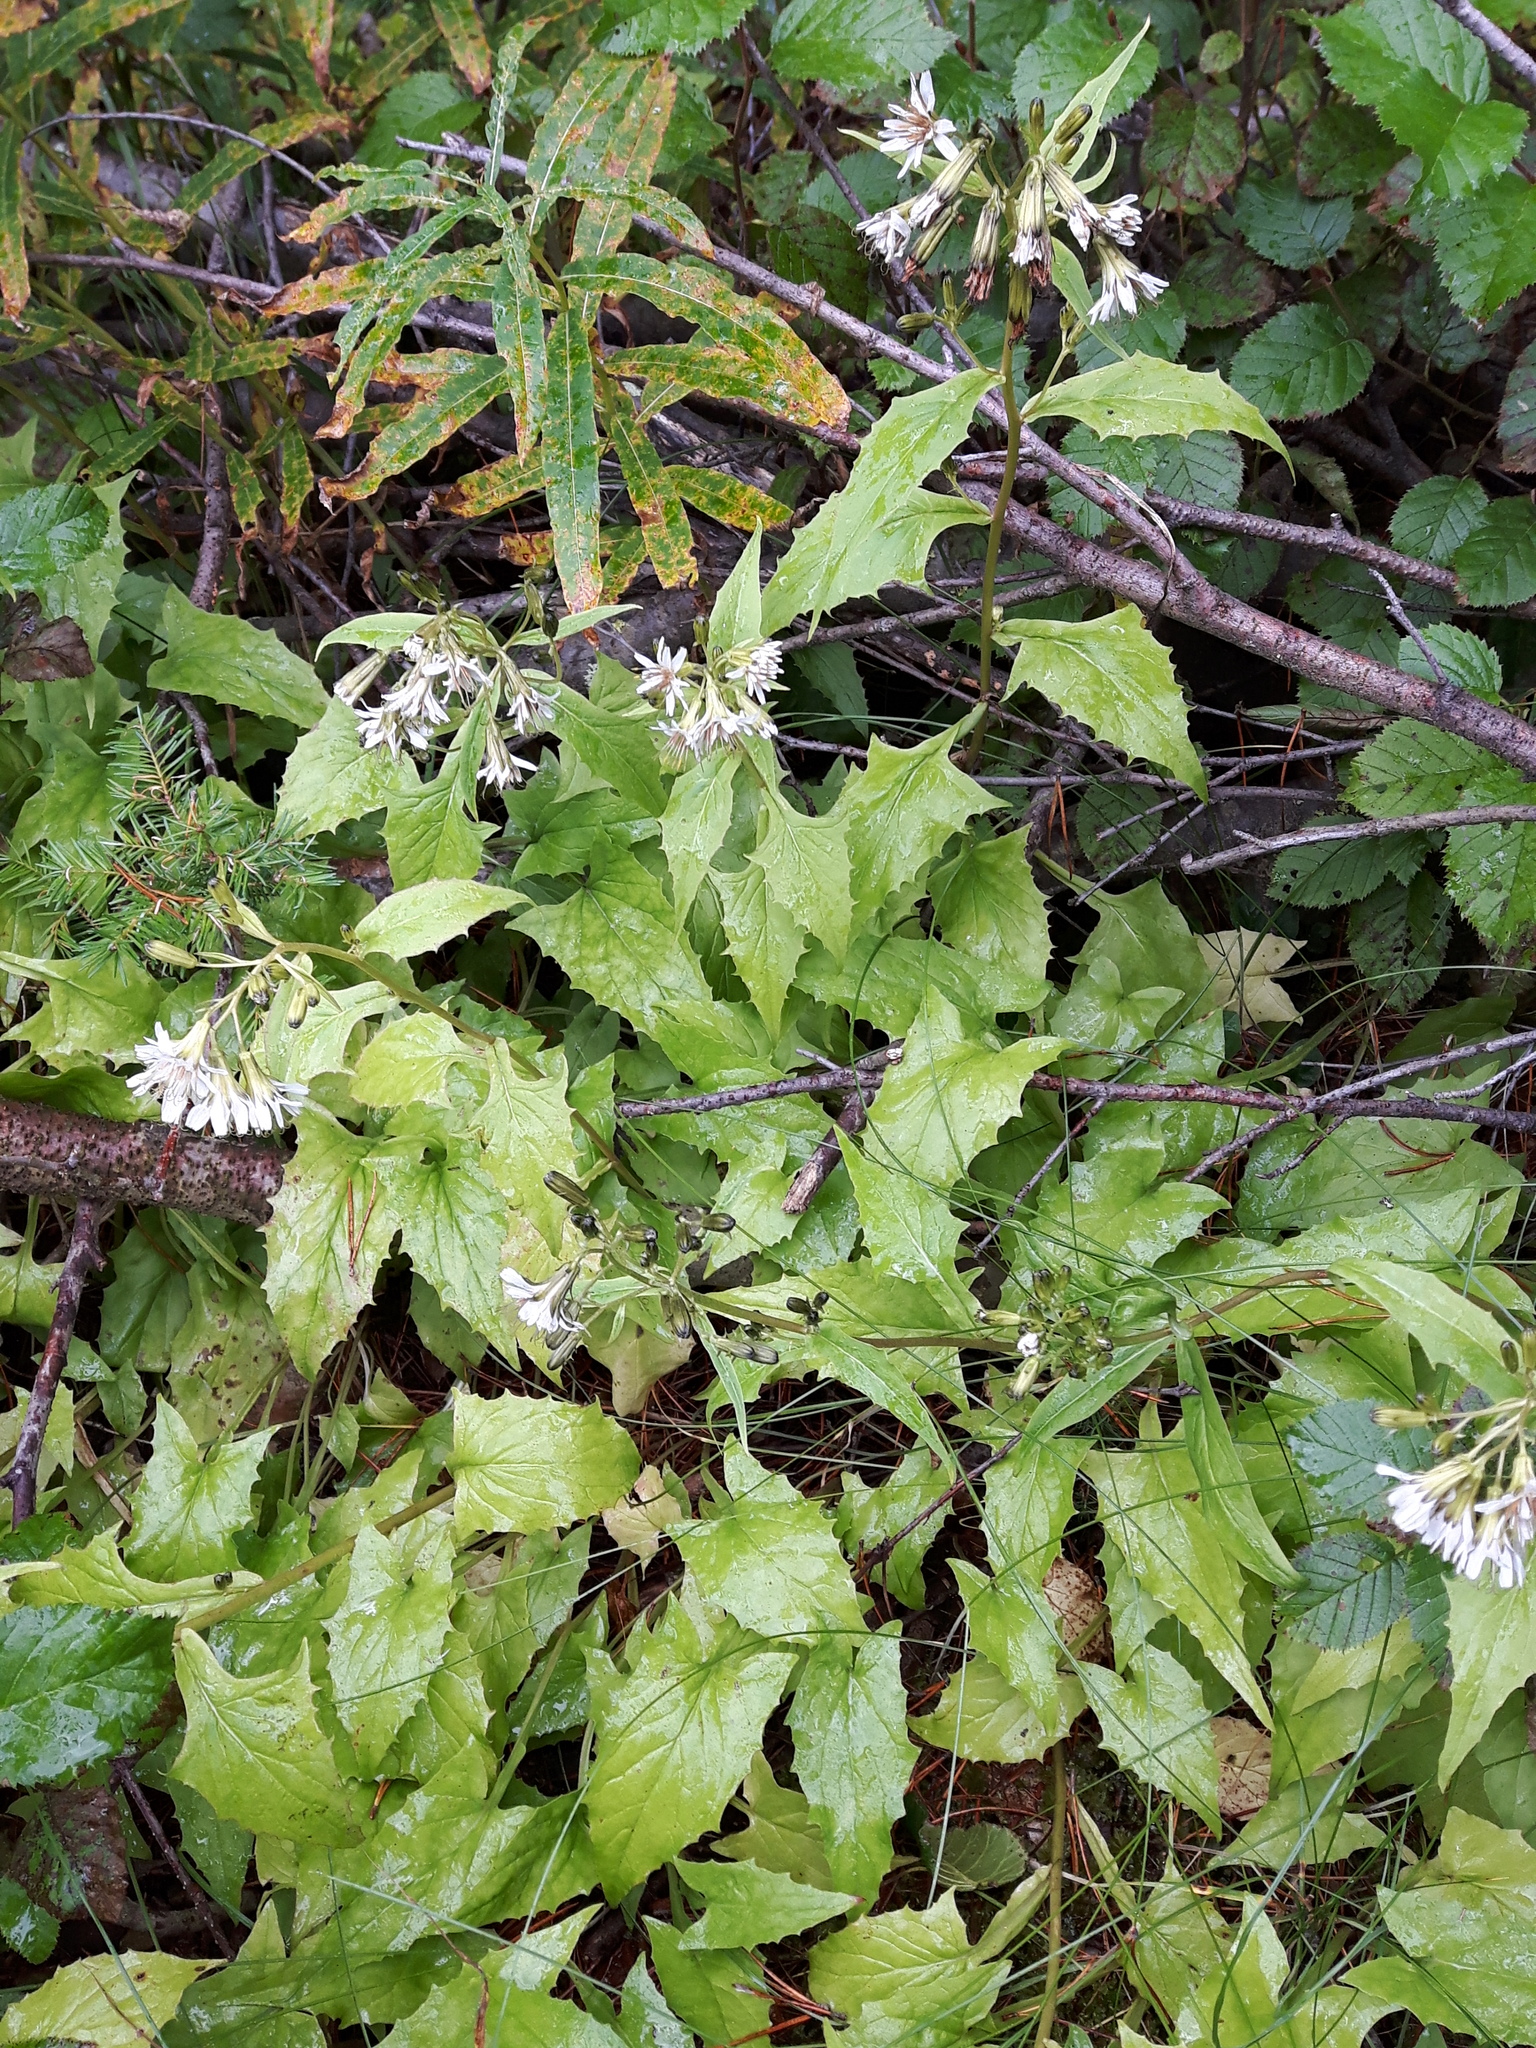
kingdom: Plantae
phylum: Tracheophyta
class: Magnoliopsida
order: Asterales
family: Asteraceae
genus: Nabalus
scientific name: Nabalus hastatus
